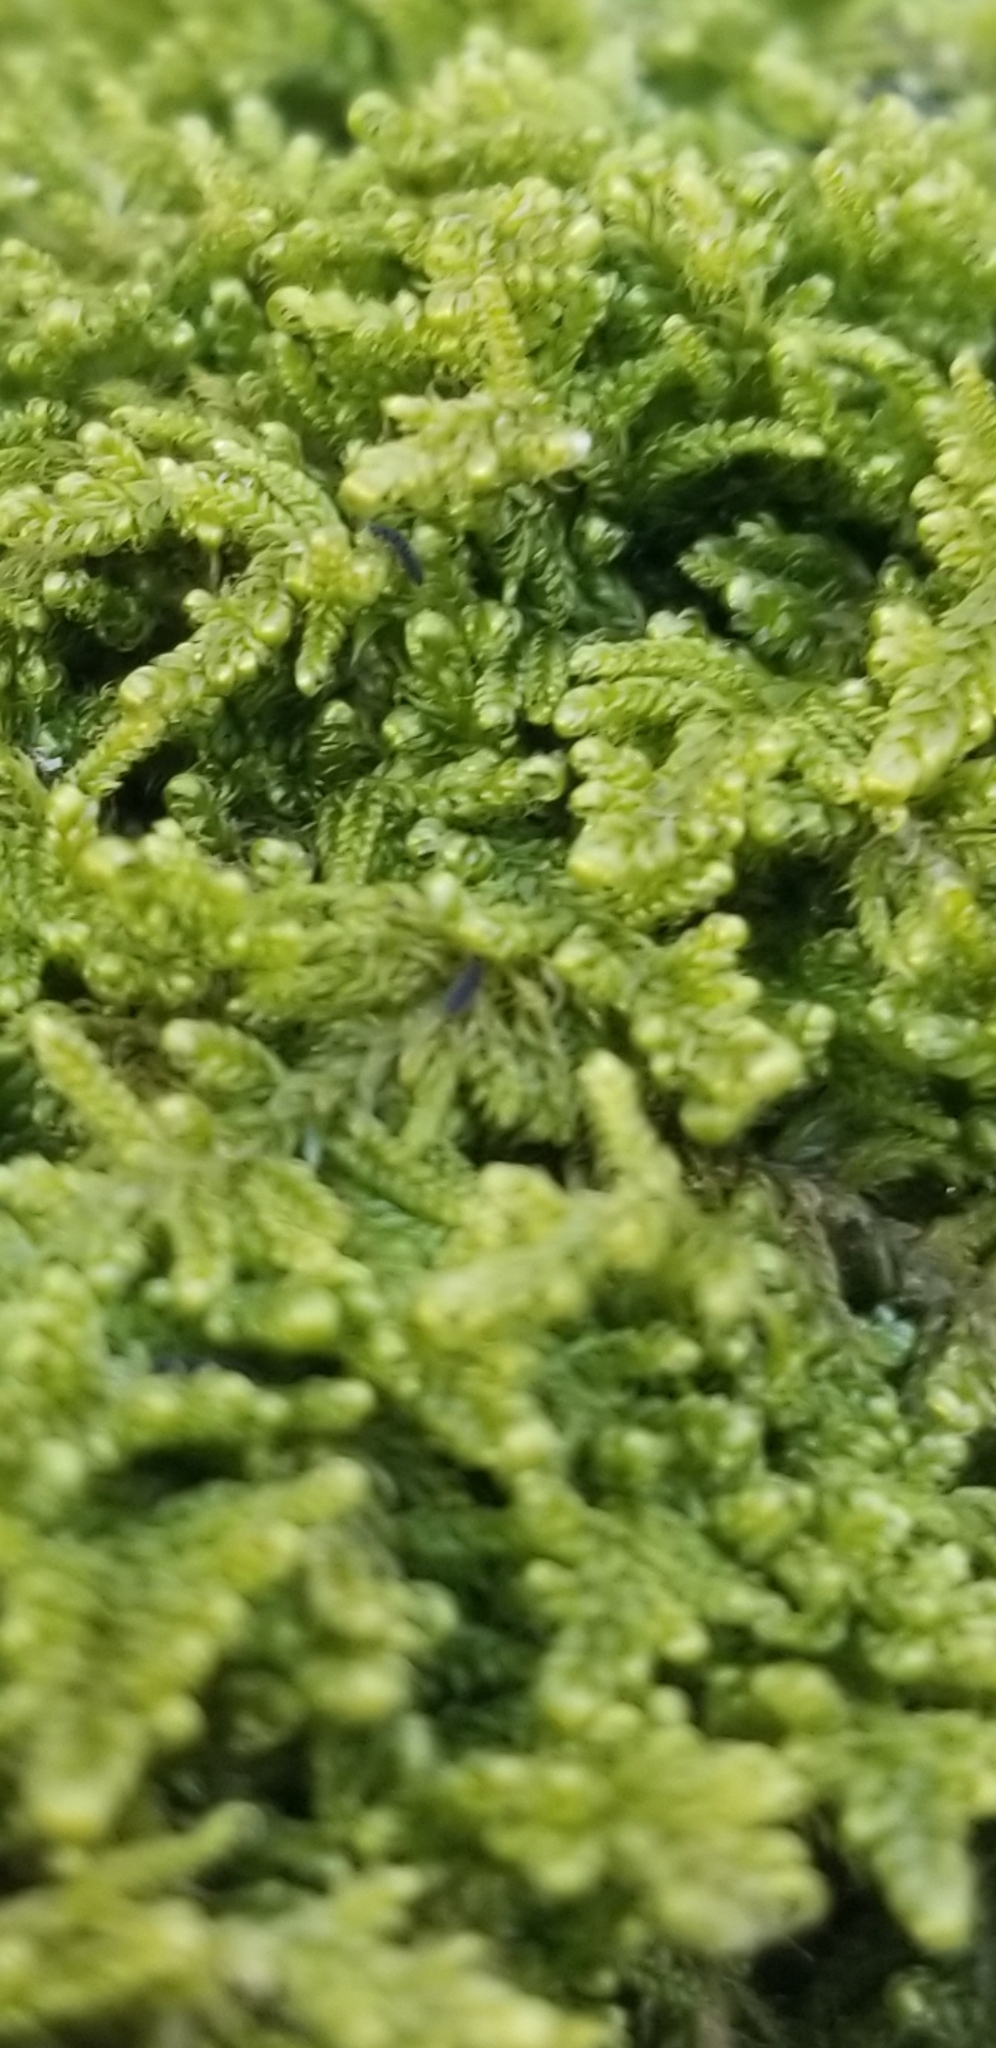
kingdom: Plantae
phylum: Bryophyta
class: Bryopsida
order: Hypnales
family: Callicladiaceae
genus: Callicladium
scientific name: Callicladium imponens
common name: Brocade moss
